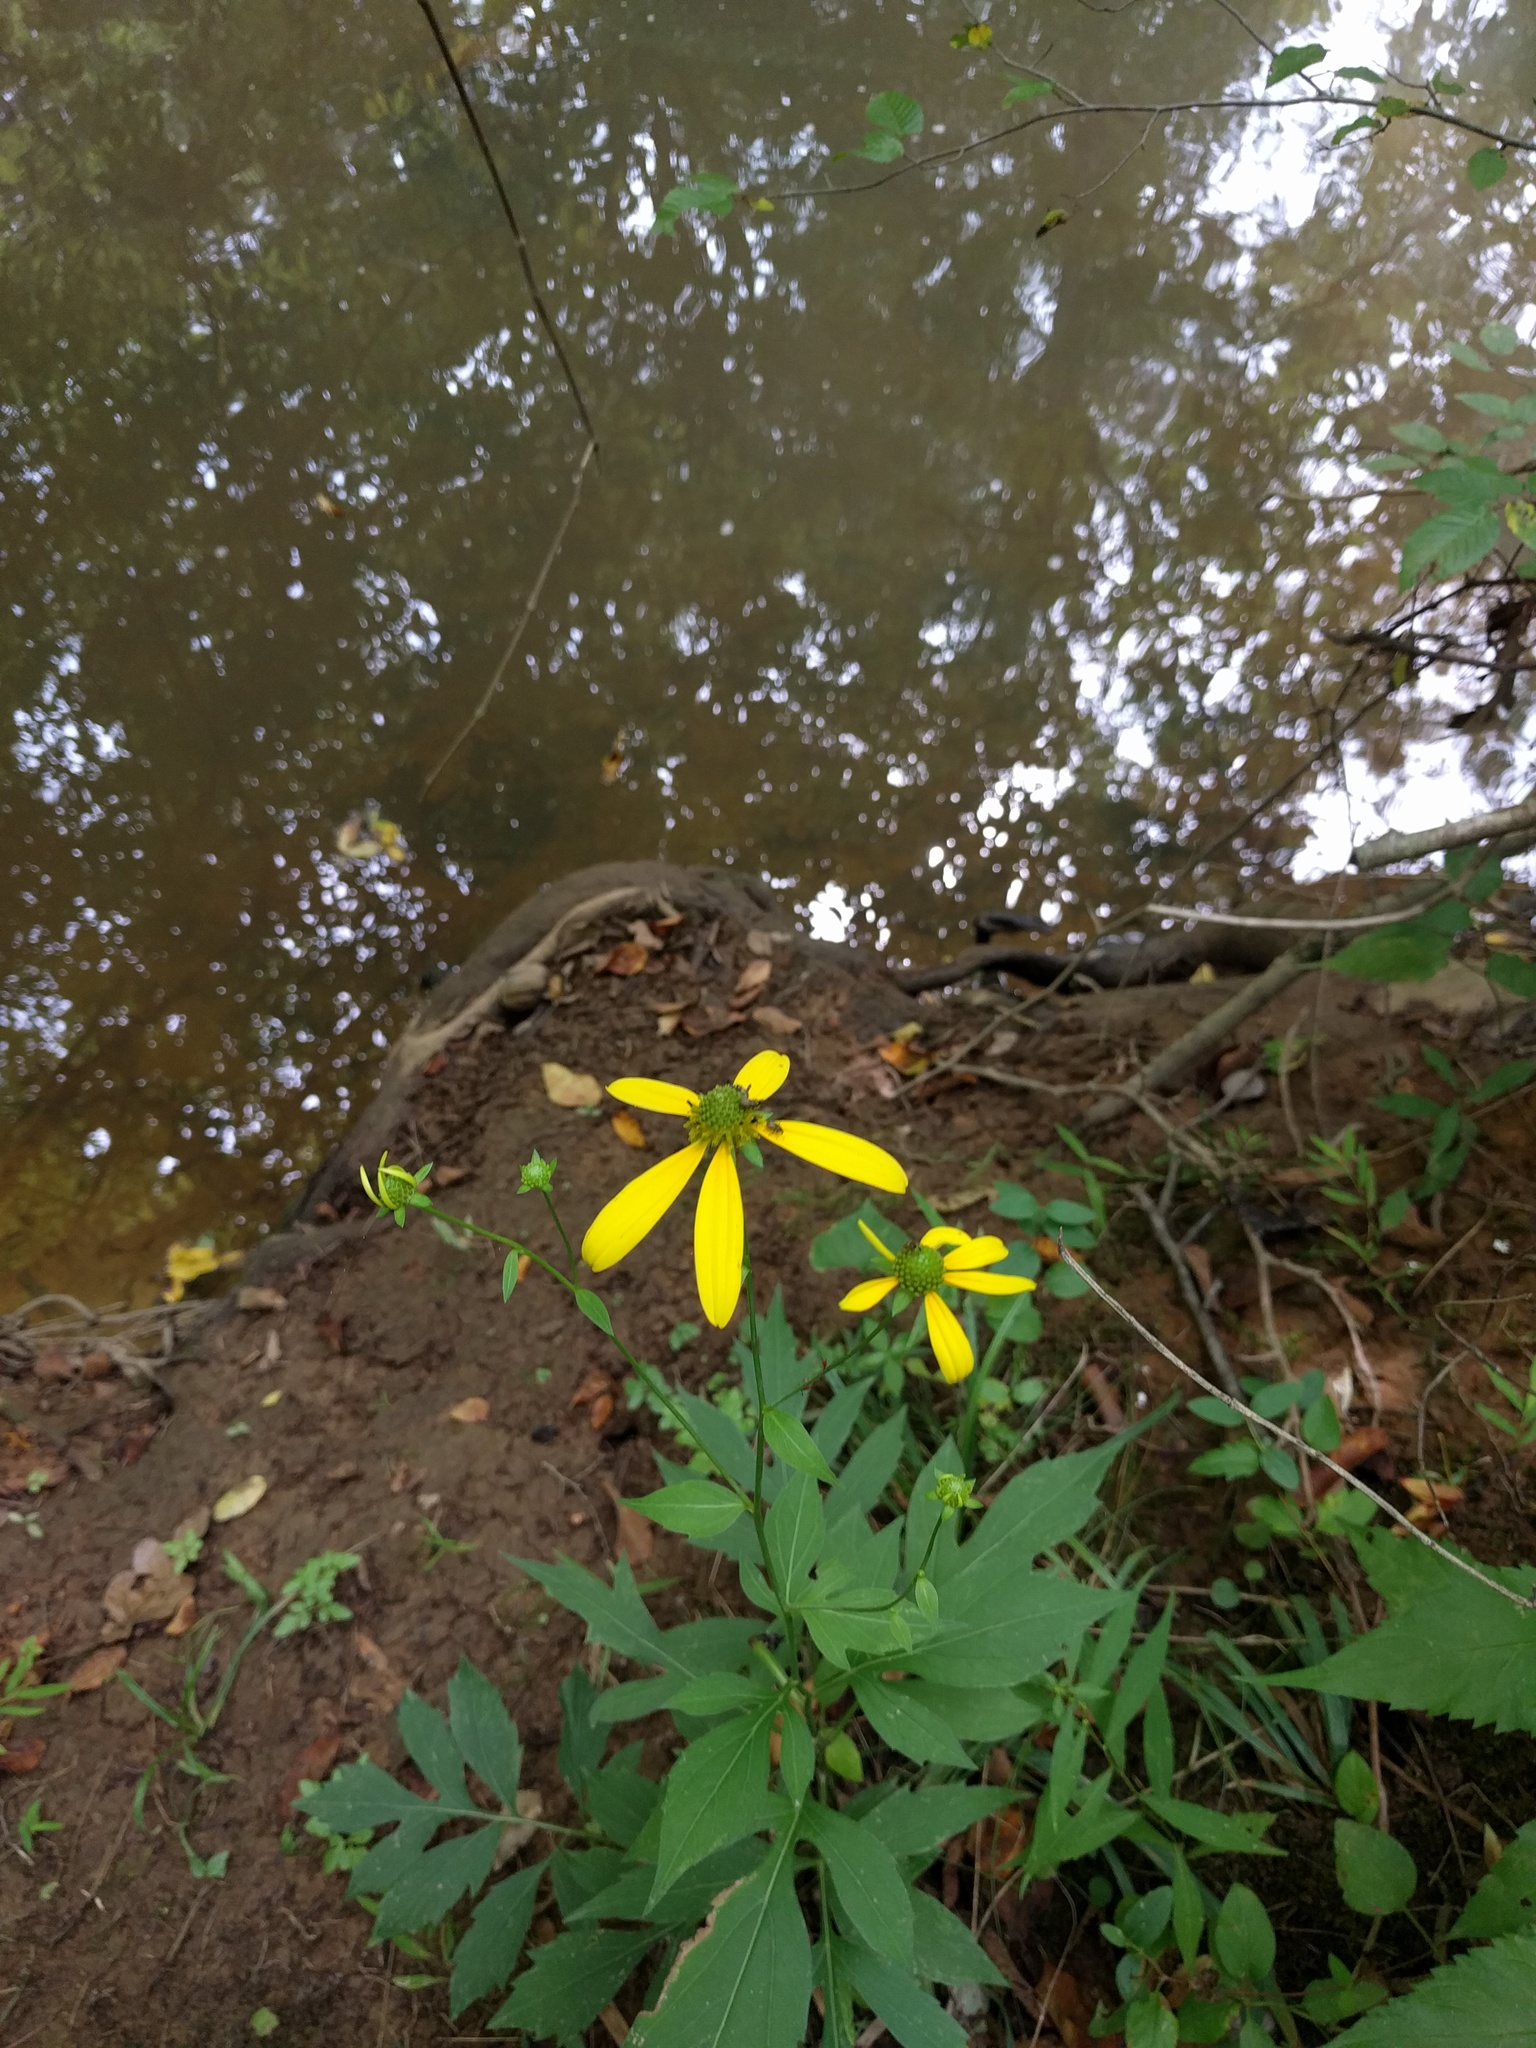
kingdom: Plantae
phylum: Tracheophyta
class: Magnoliopsida
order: Asterales
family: Asteraceae
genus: Rudbeckia
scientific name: Rudbeckia laciniata
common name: Coneflower
